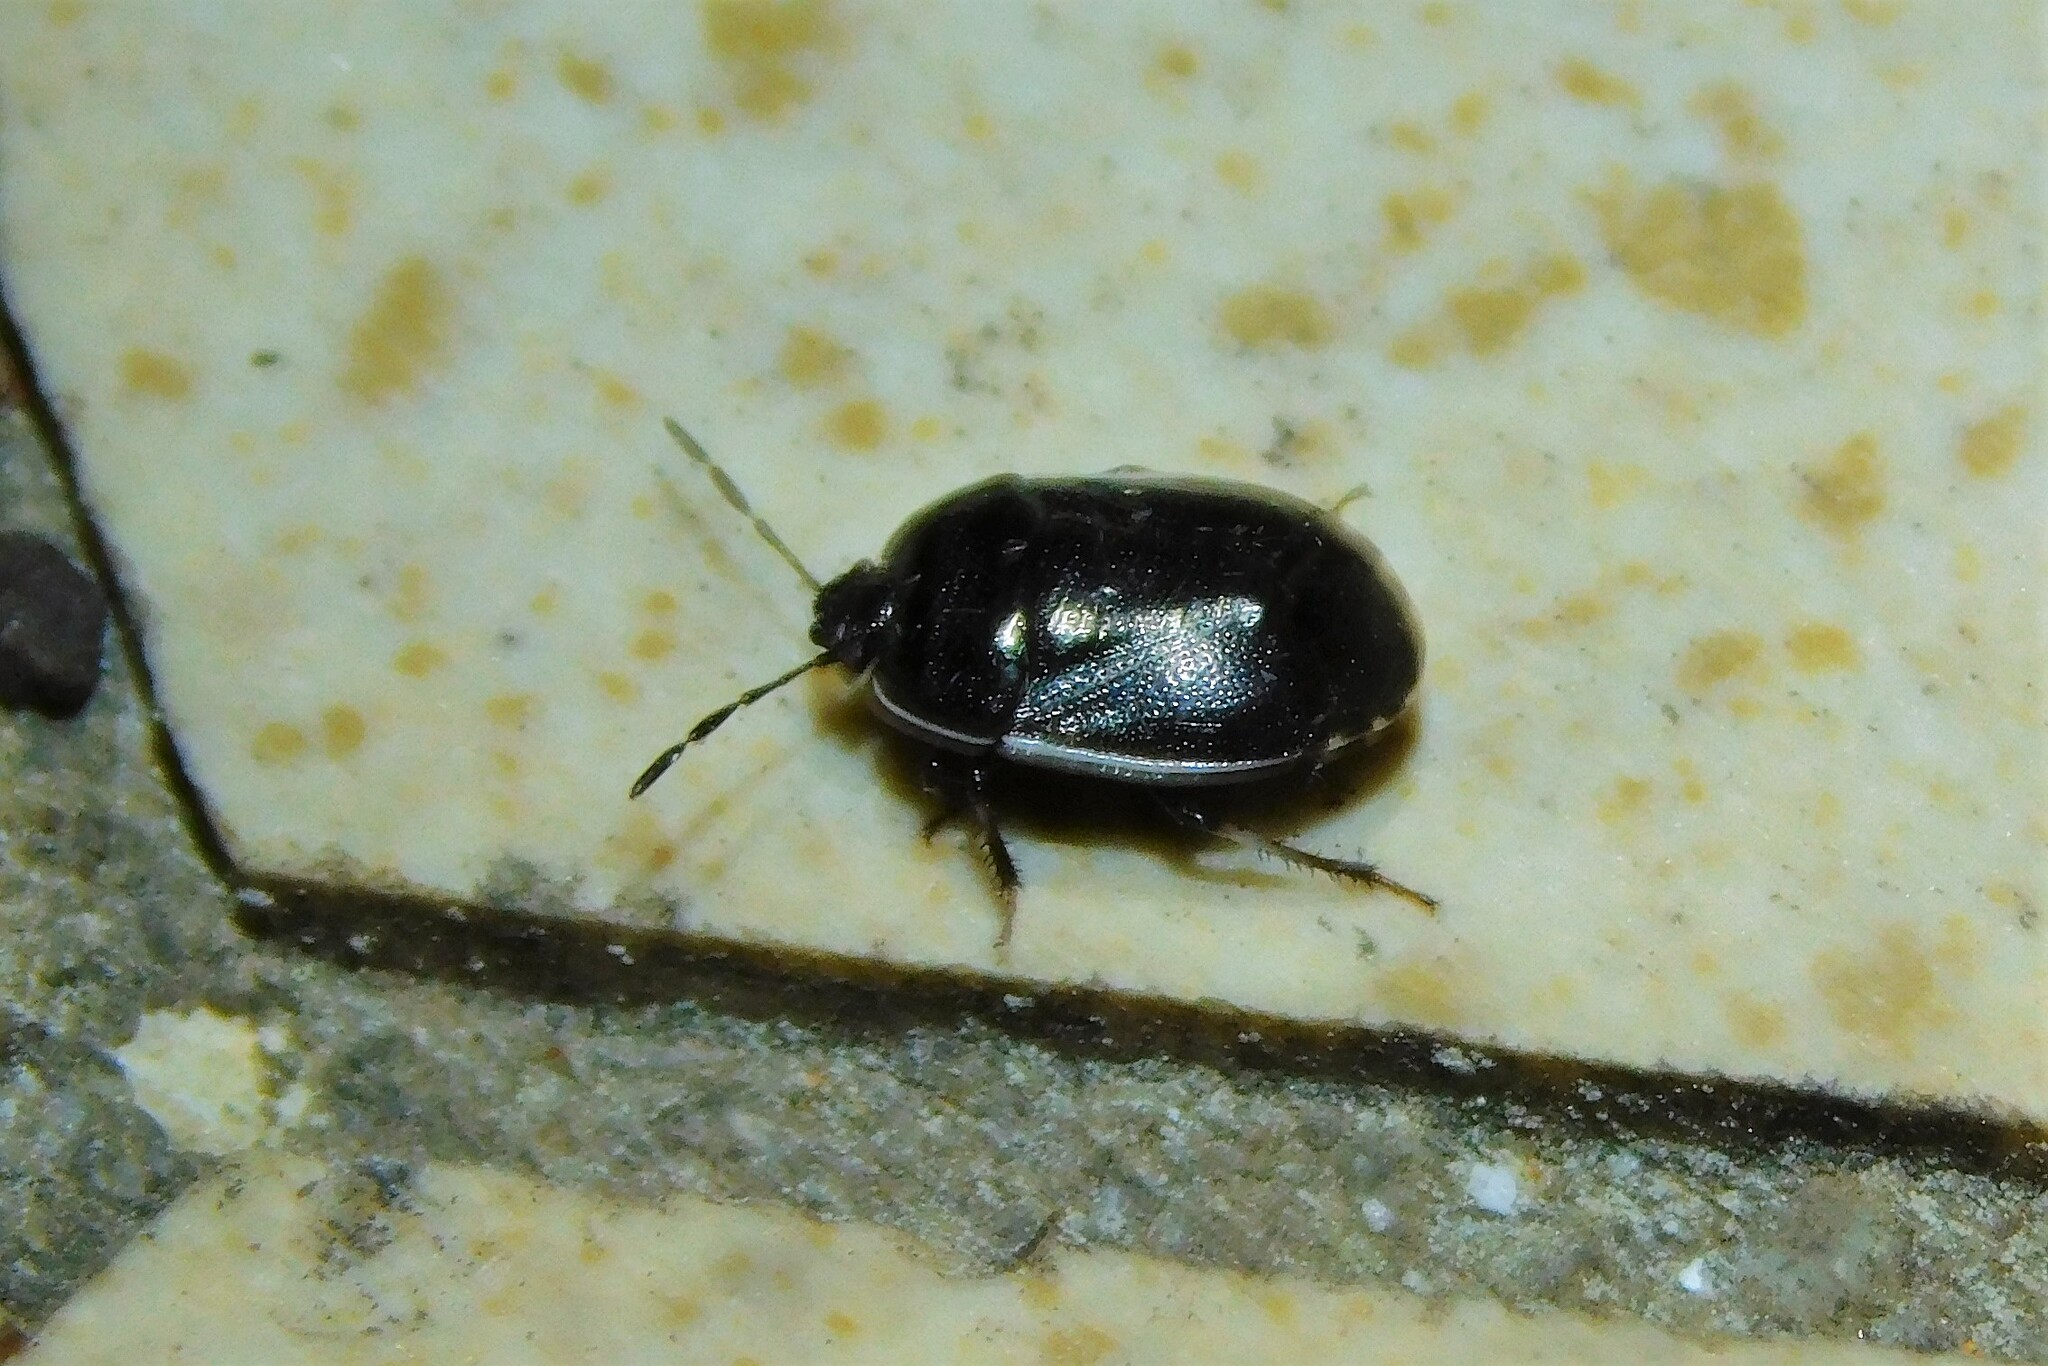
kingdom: Animalia
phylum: Arthropoda
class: Insecta
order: Hemiptera
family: Cydnidae
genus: Adomerus
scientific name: Adomerus
